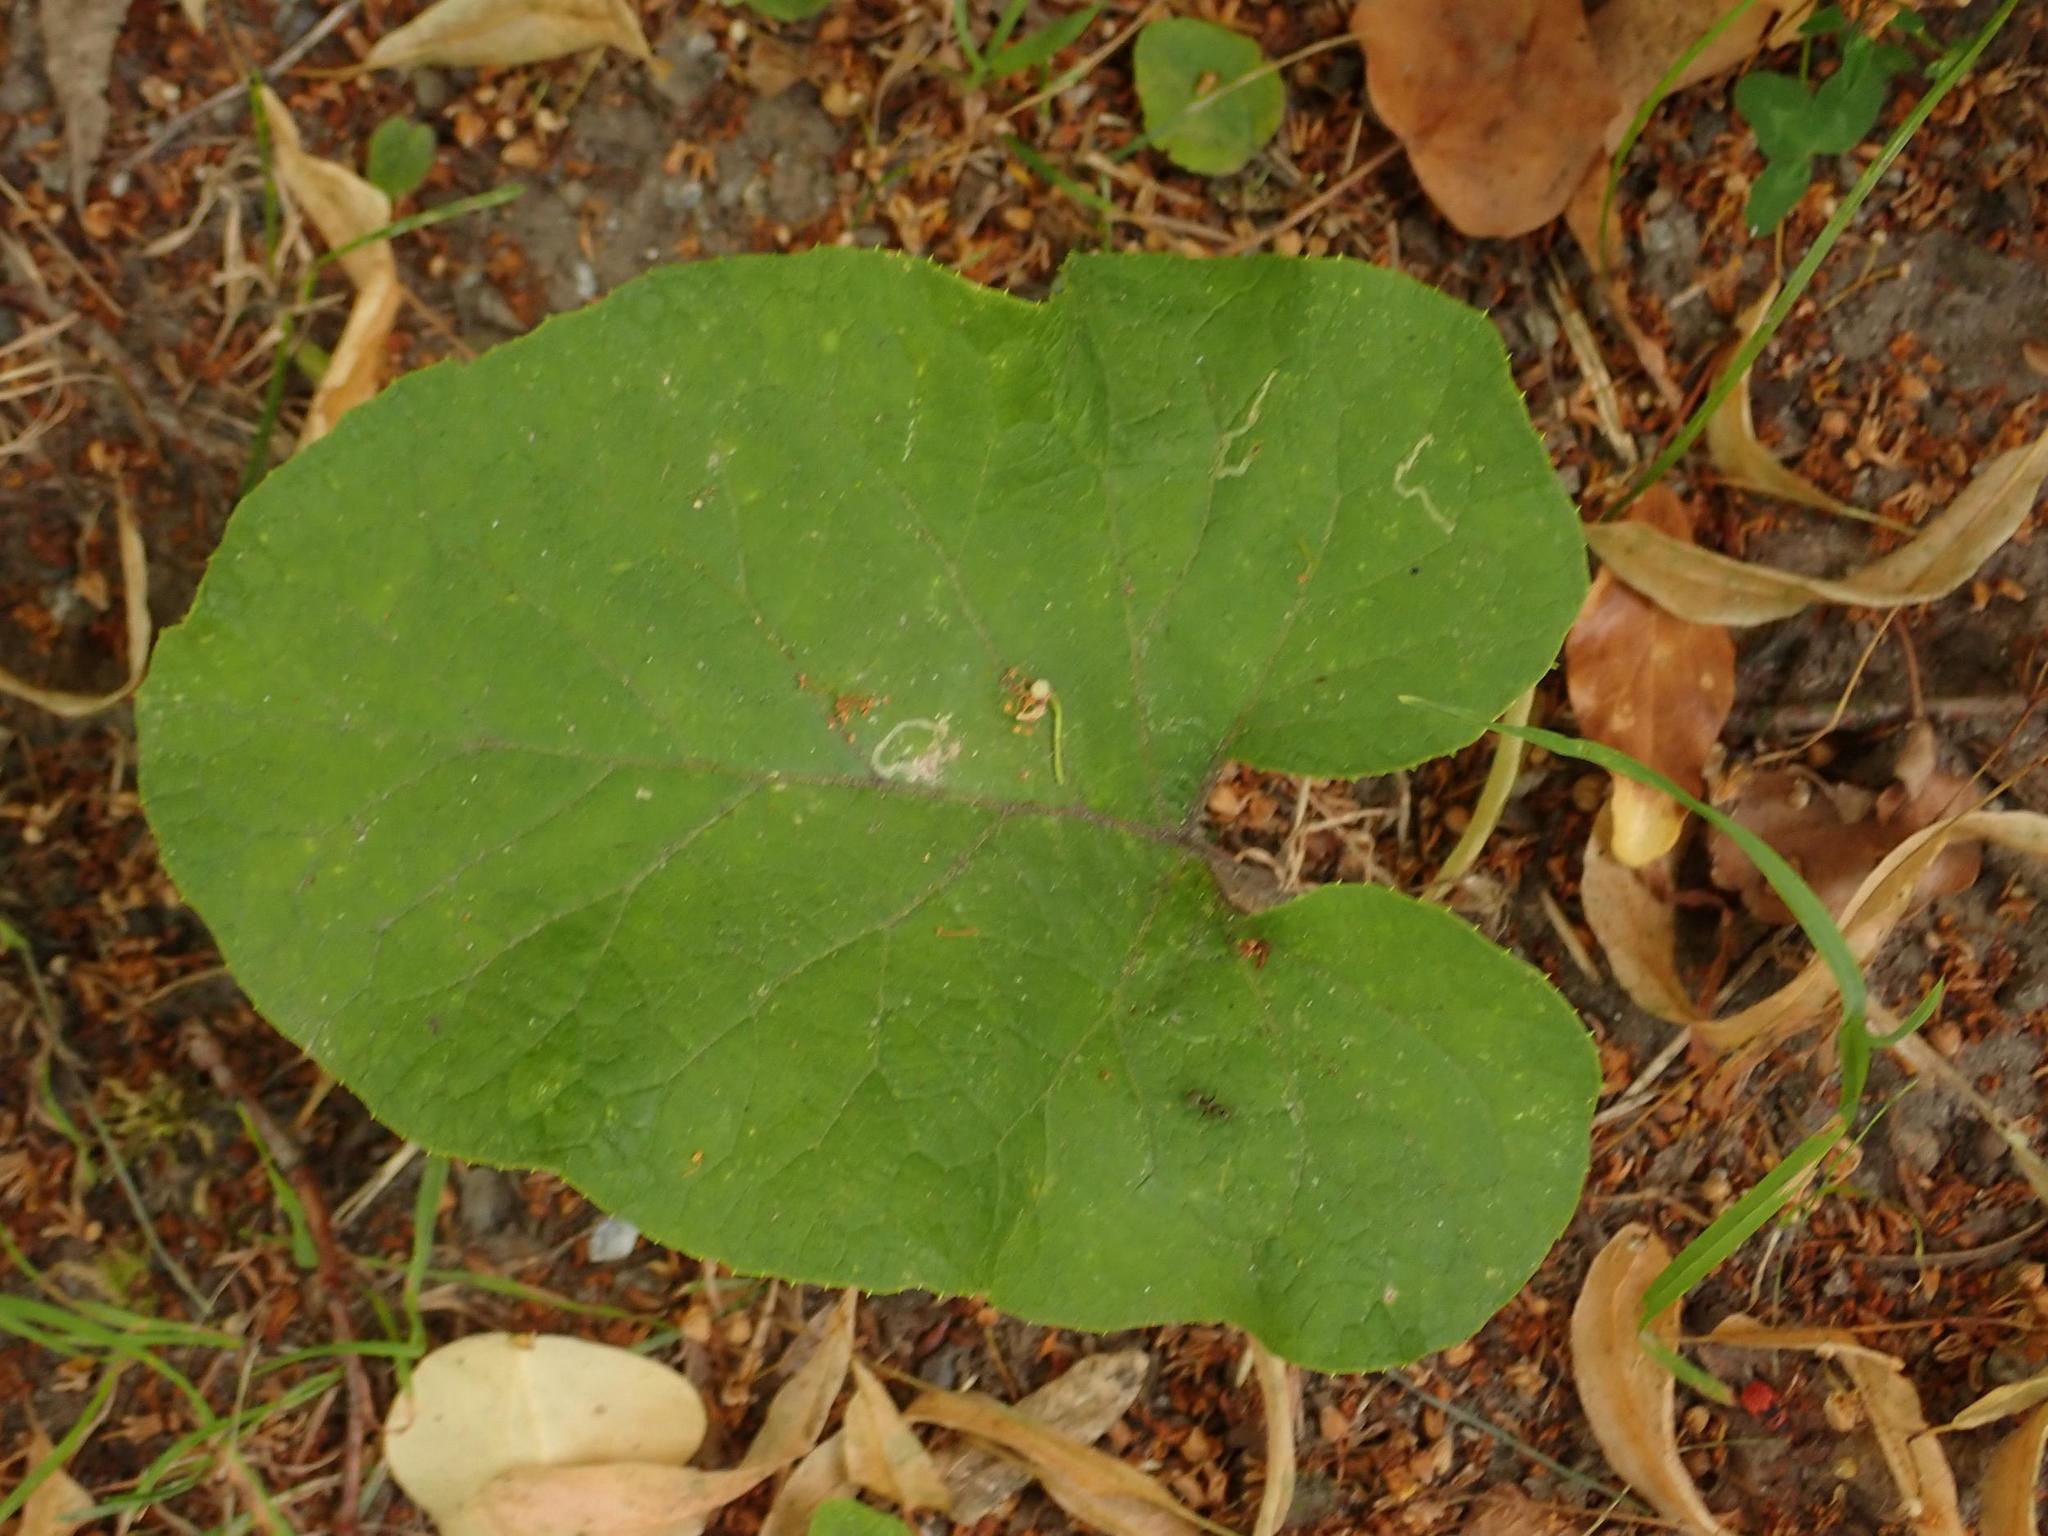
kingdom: Plantae
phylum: Tracheophyta
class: Magnoliopsida
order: Asterales
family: Asteraceae
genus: Arctium
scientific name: Arctium tomentosum
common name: Woolly burdock
